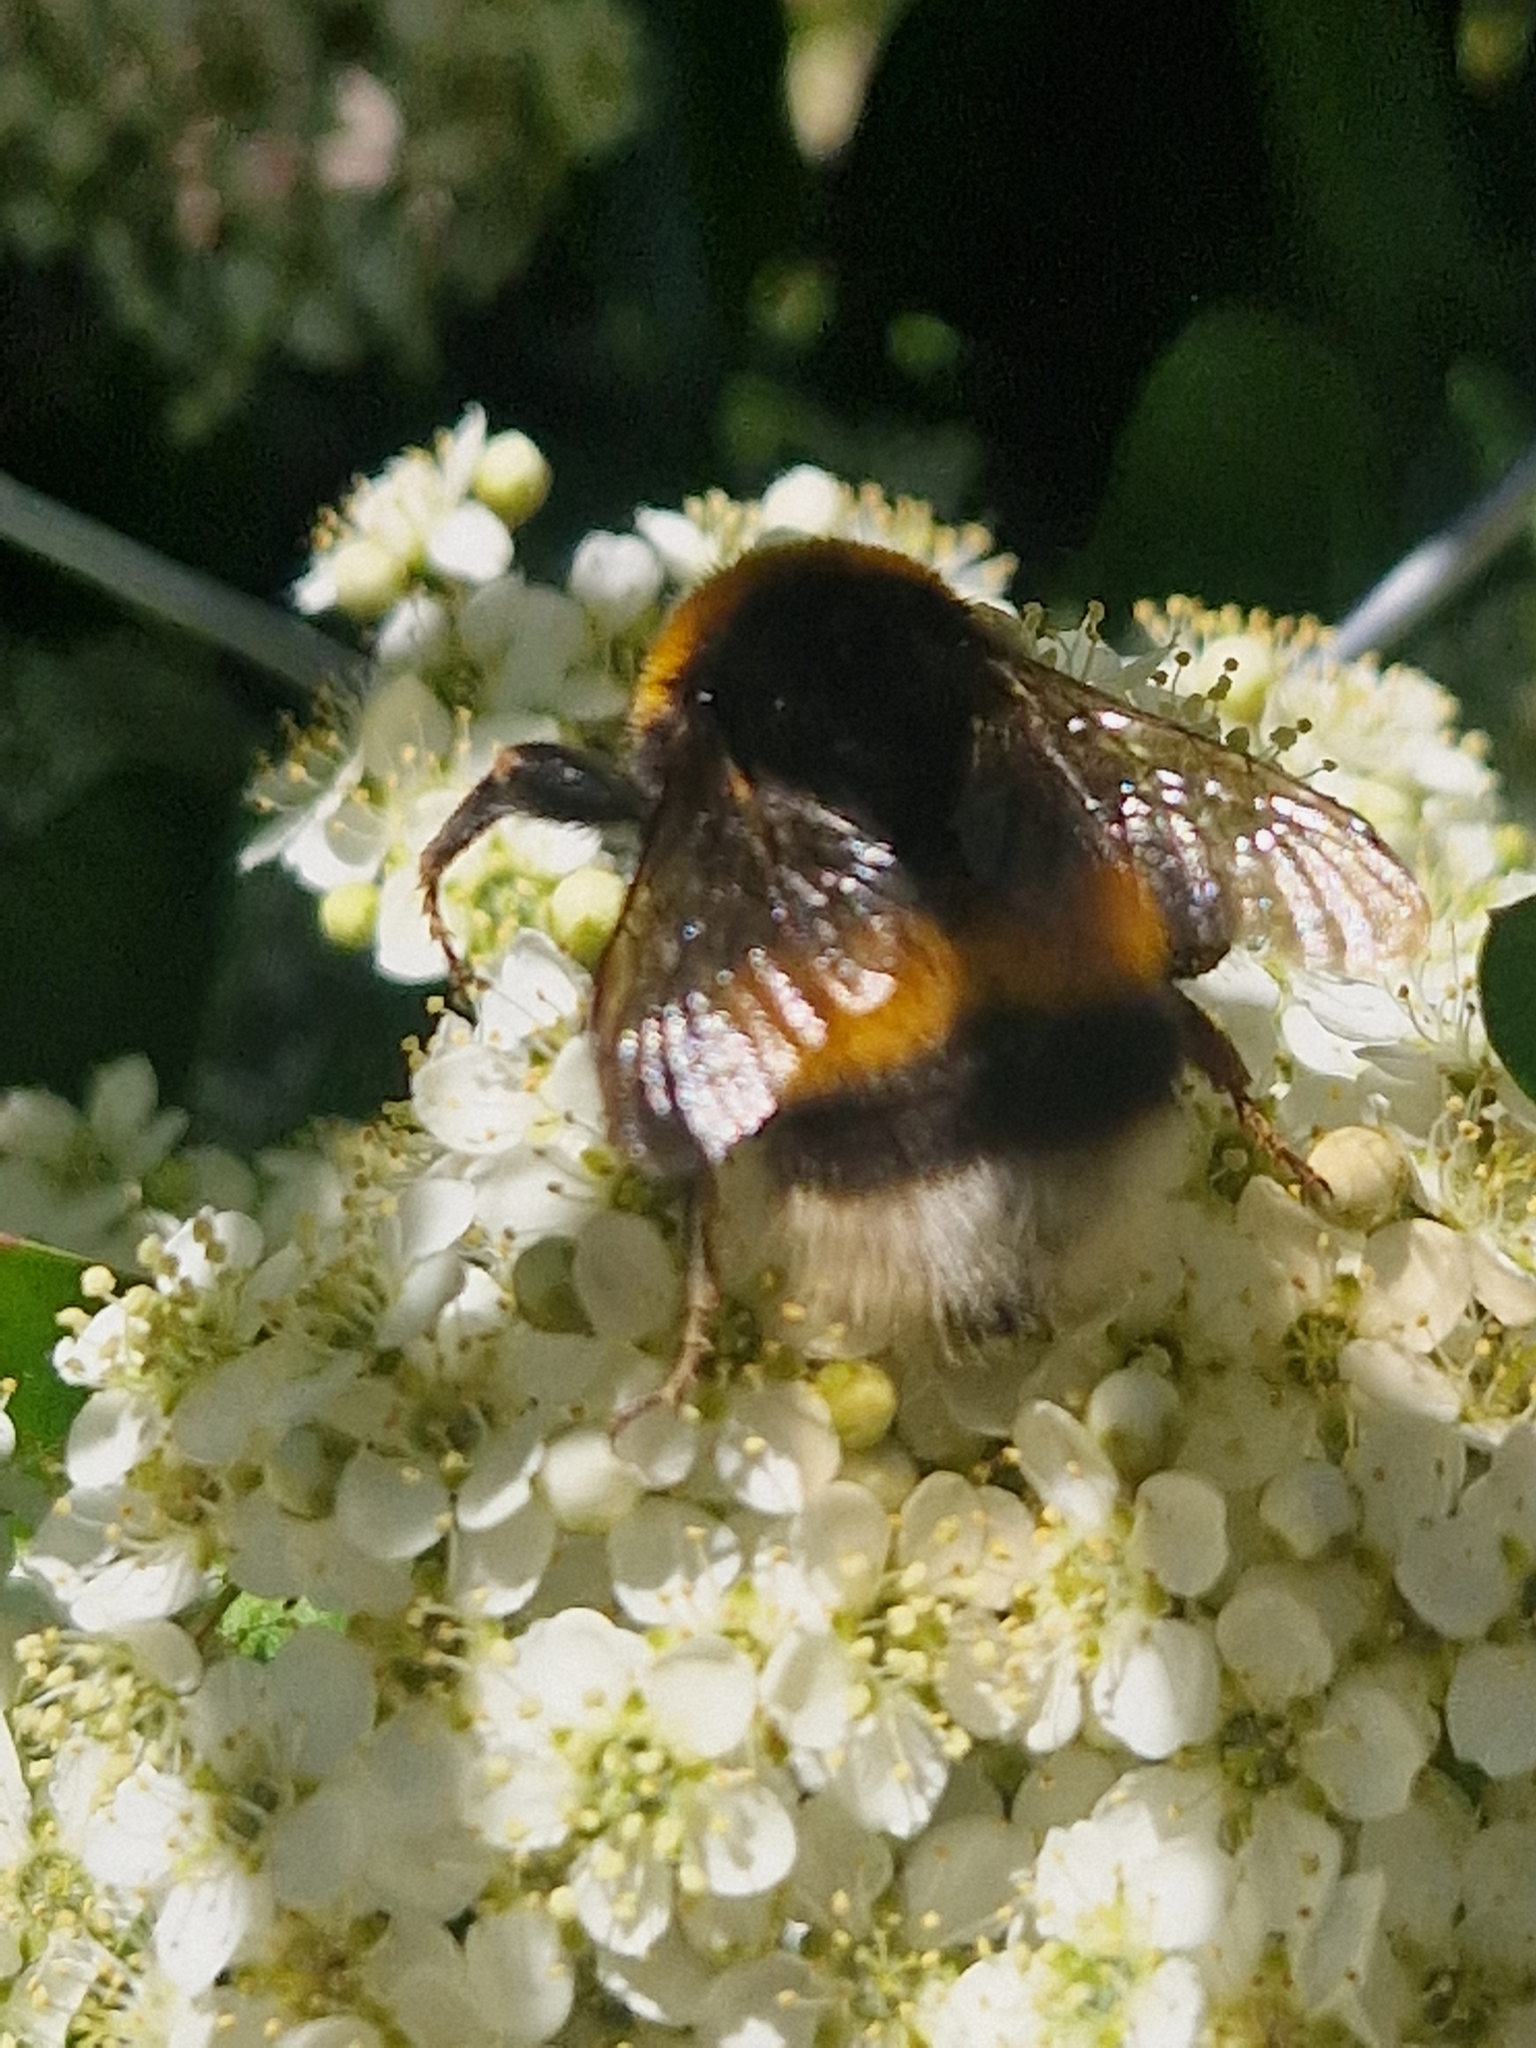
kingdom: Animalia
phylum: Arthropoda
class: Insecta
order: Hymenoptera
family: Apidae
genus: Bombus
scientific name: Bombus terrestris
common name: Buff-tailed bumblebee
